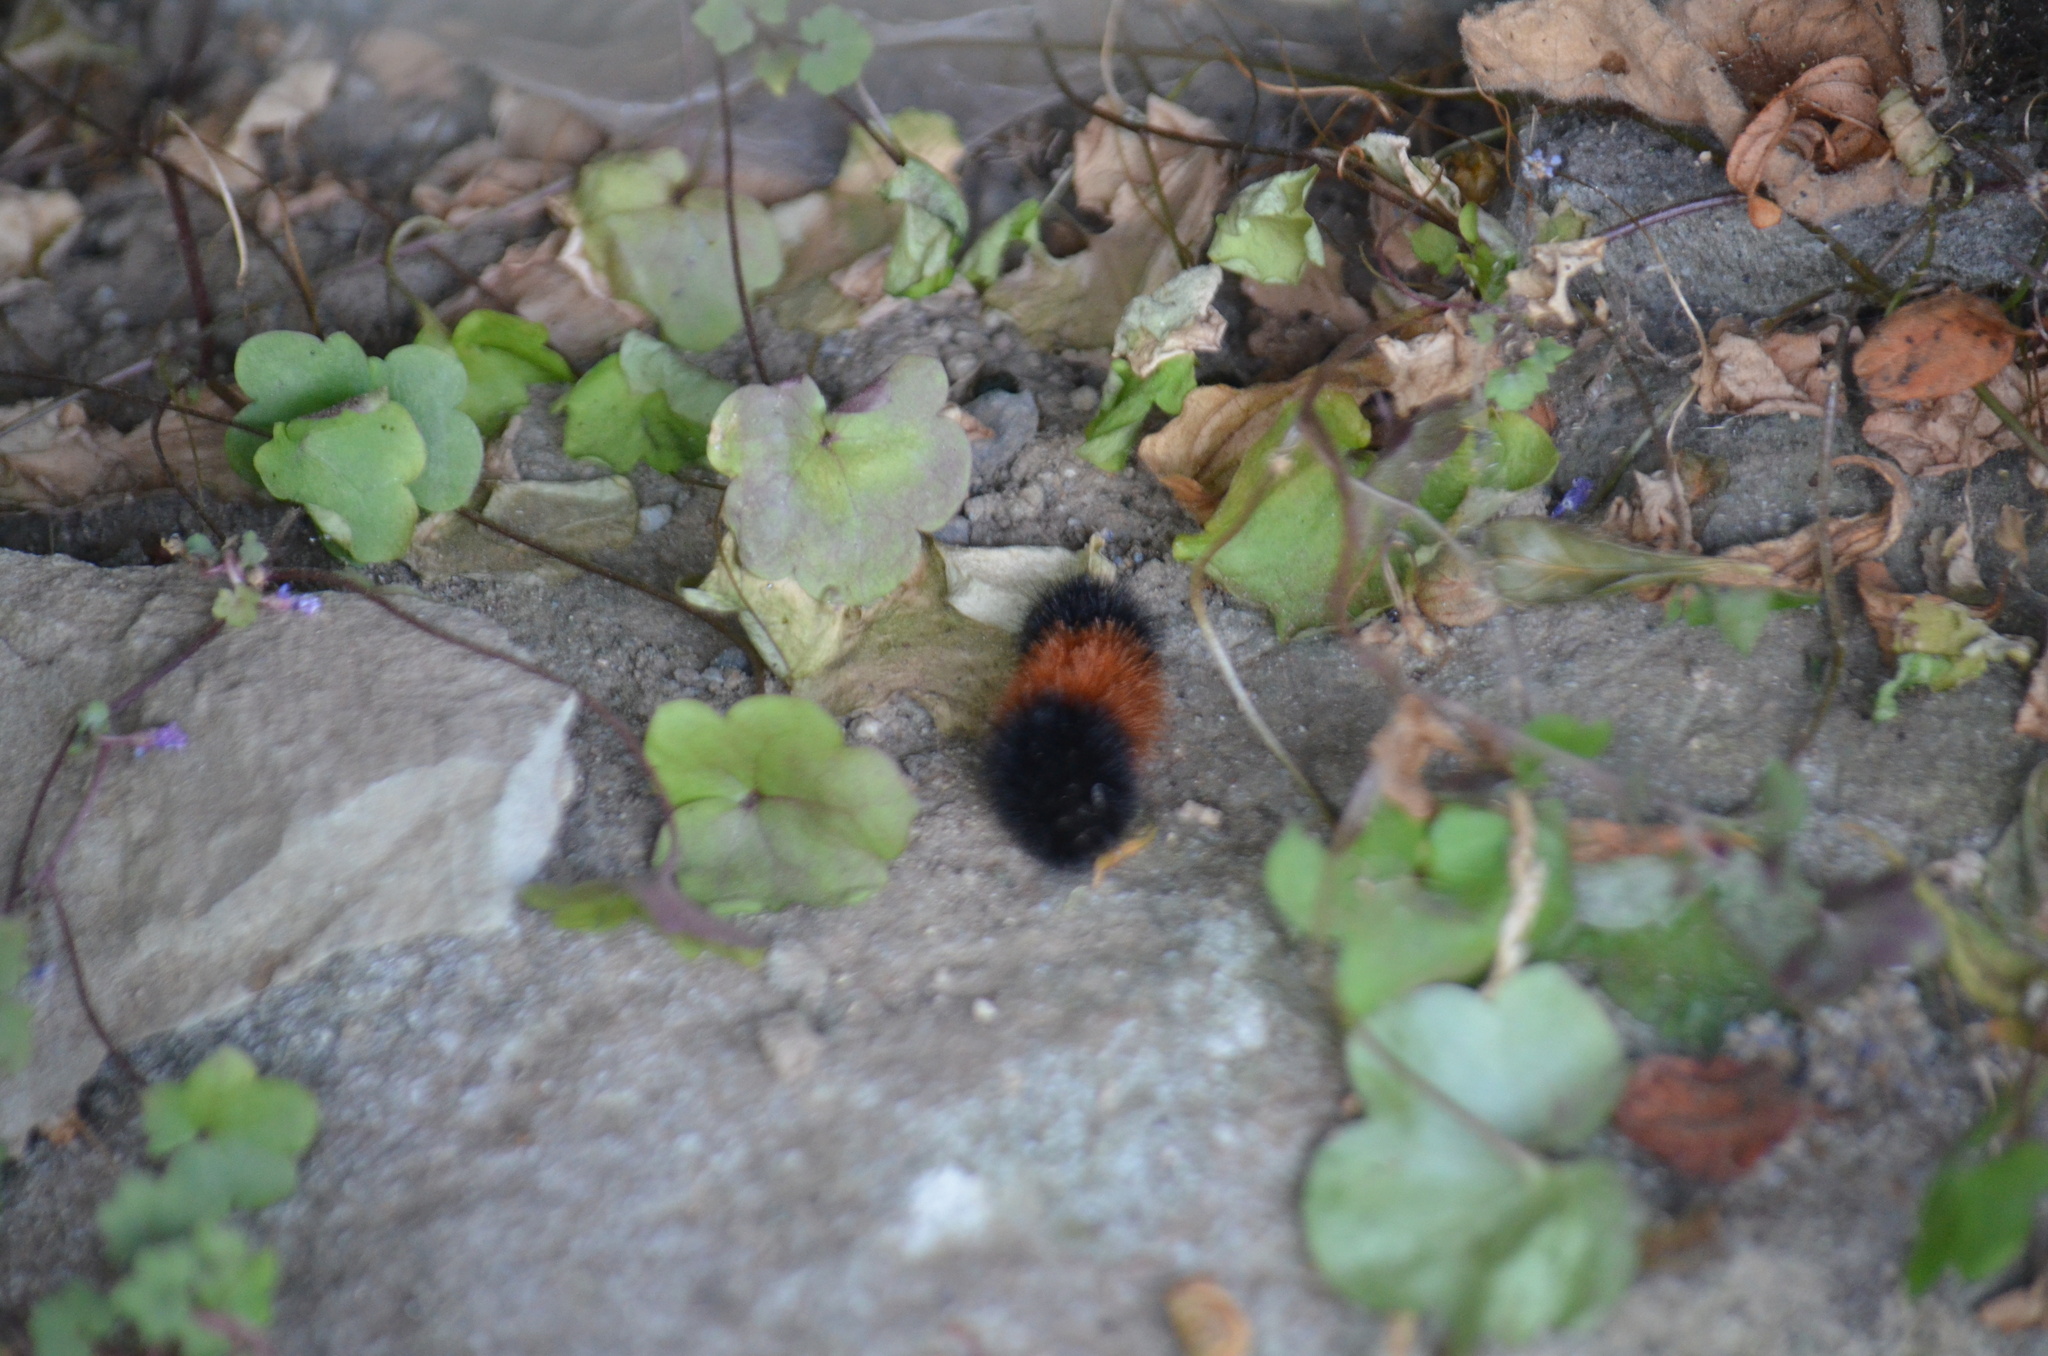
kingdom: Animalia
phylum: Arthropoda
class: Insecta
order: Lepidoptera
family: Erebidae
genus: Pyrrharctia
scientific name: Pyrrharctia isabella
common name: Isabella tiger moth
